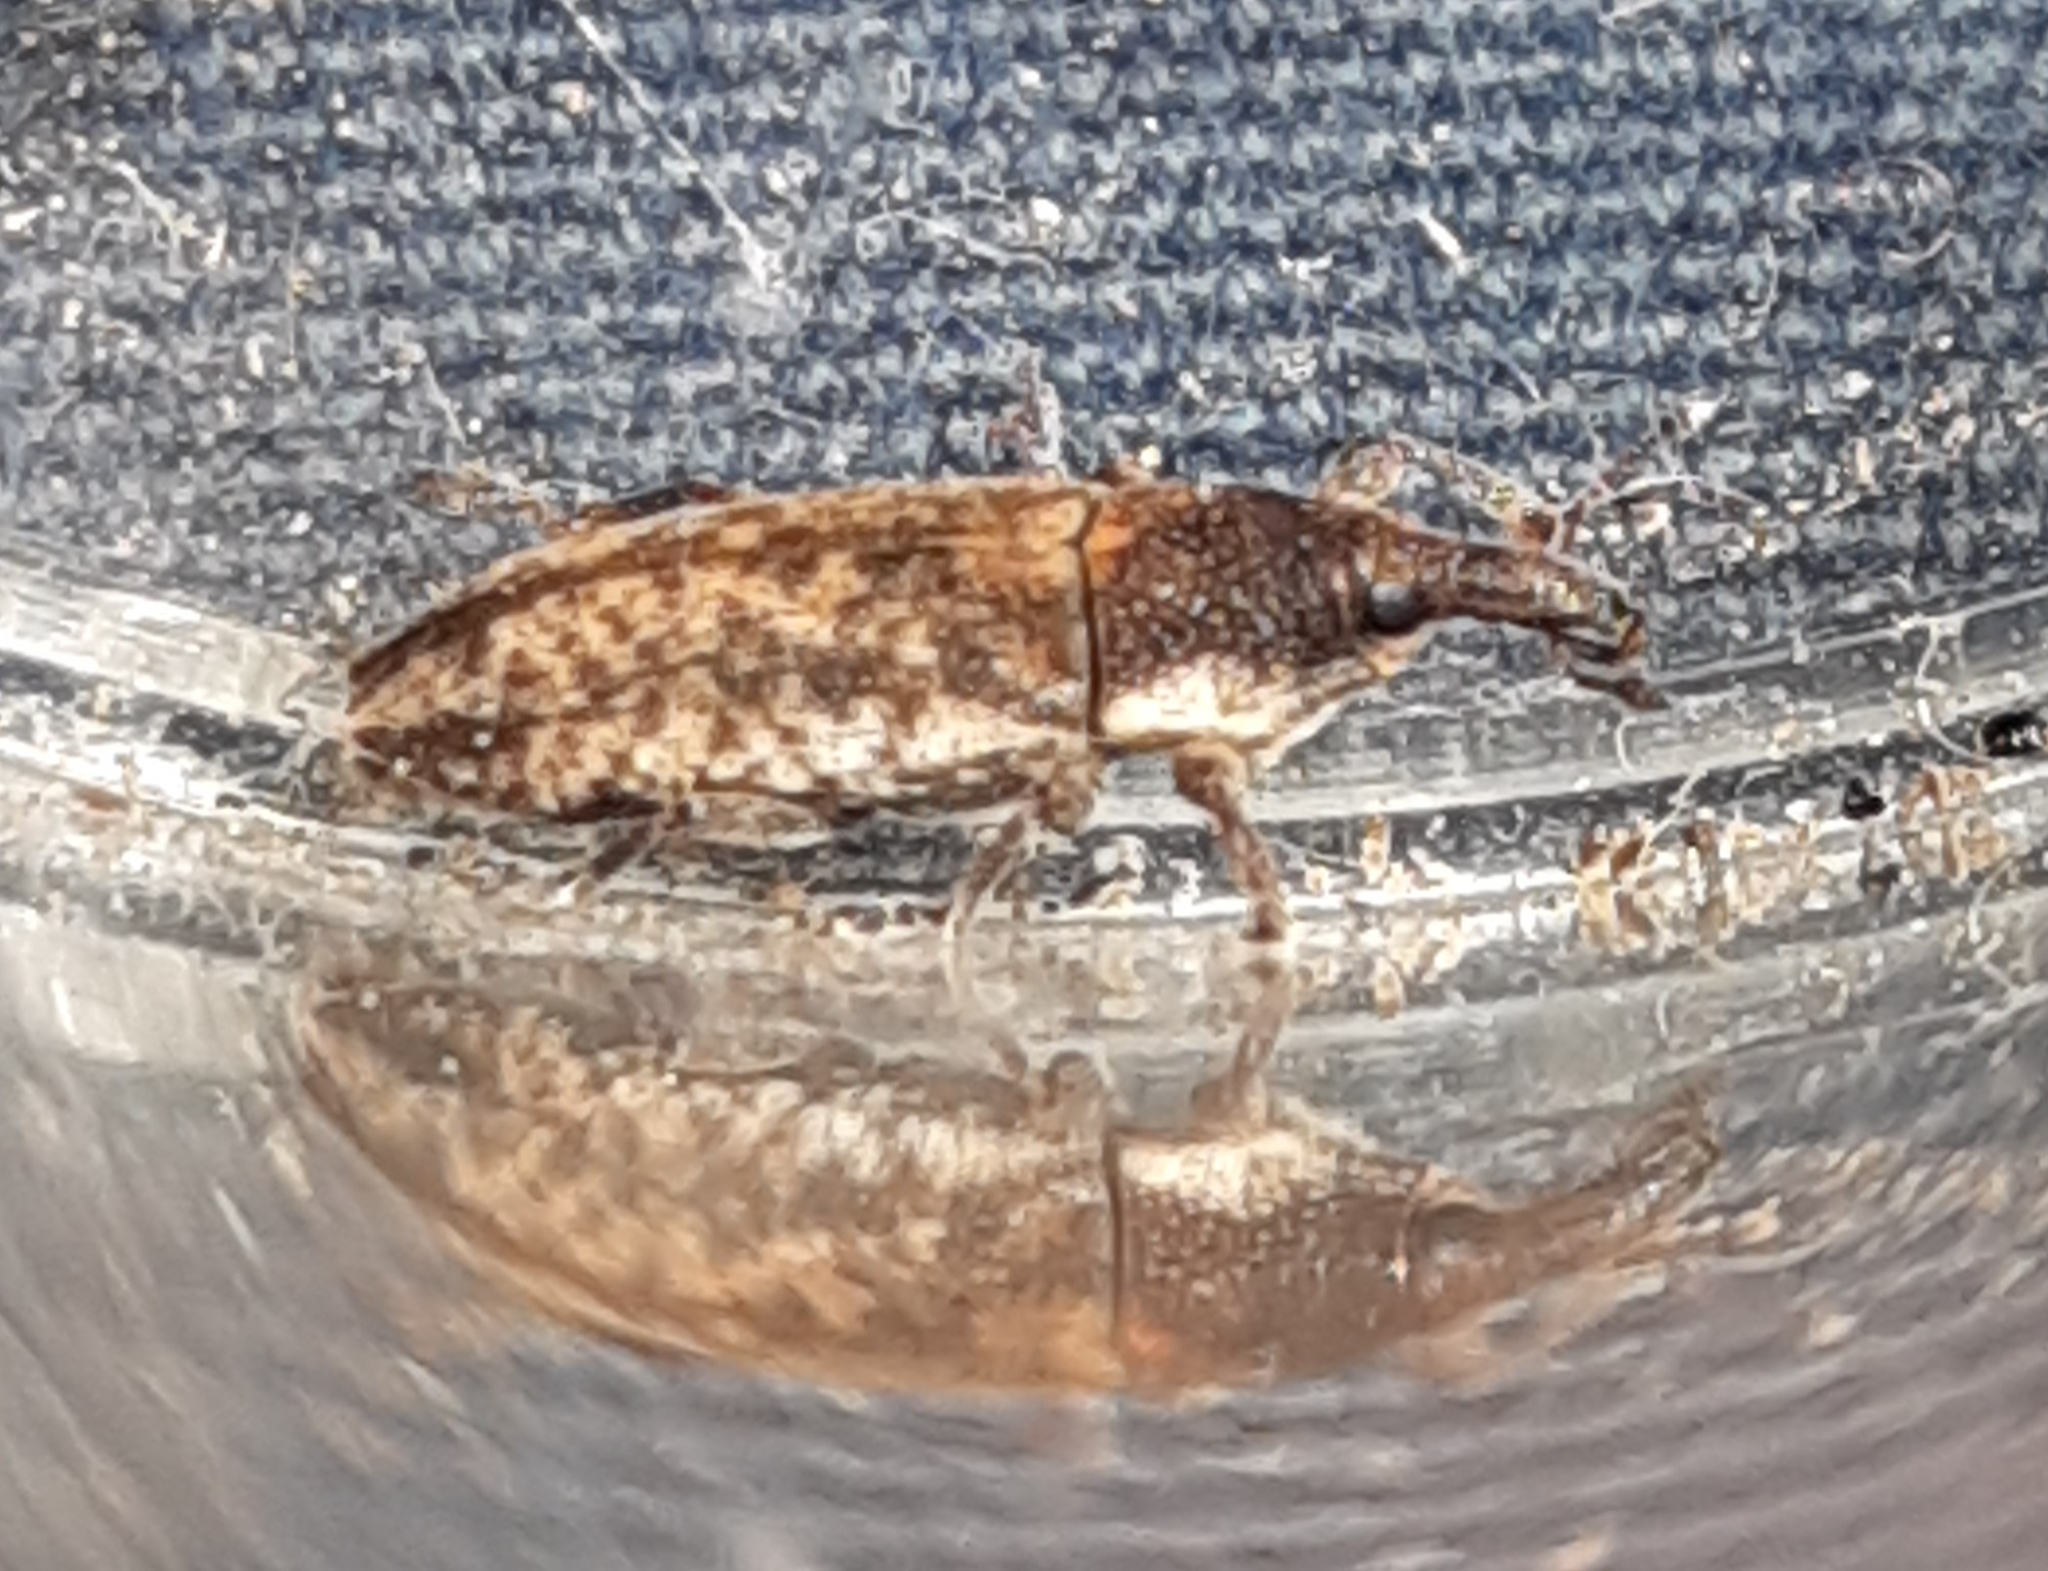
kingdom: Animalia
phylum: Arthropoda
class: Insecta
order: Coleoptera
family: Curculionidae
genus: Lixus
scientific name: Lixus subtilis
